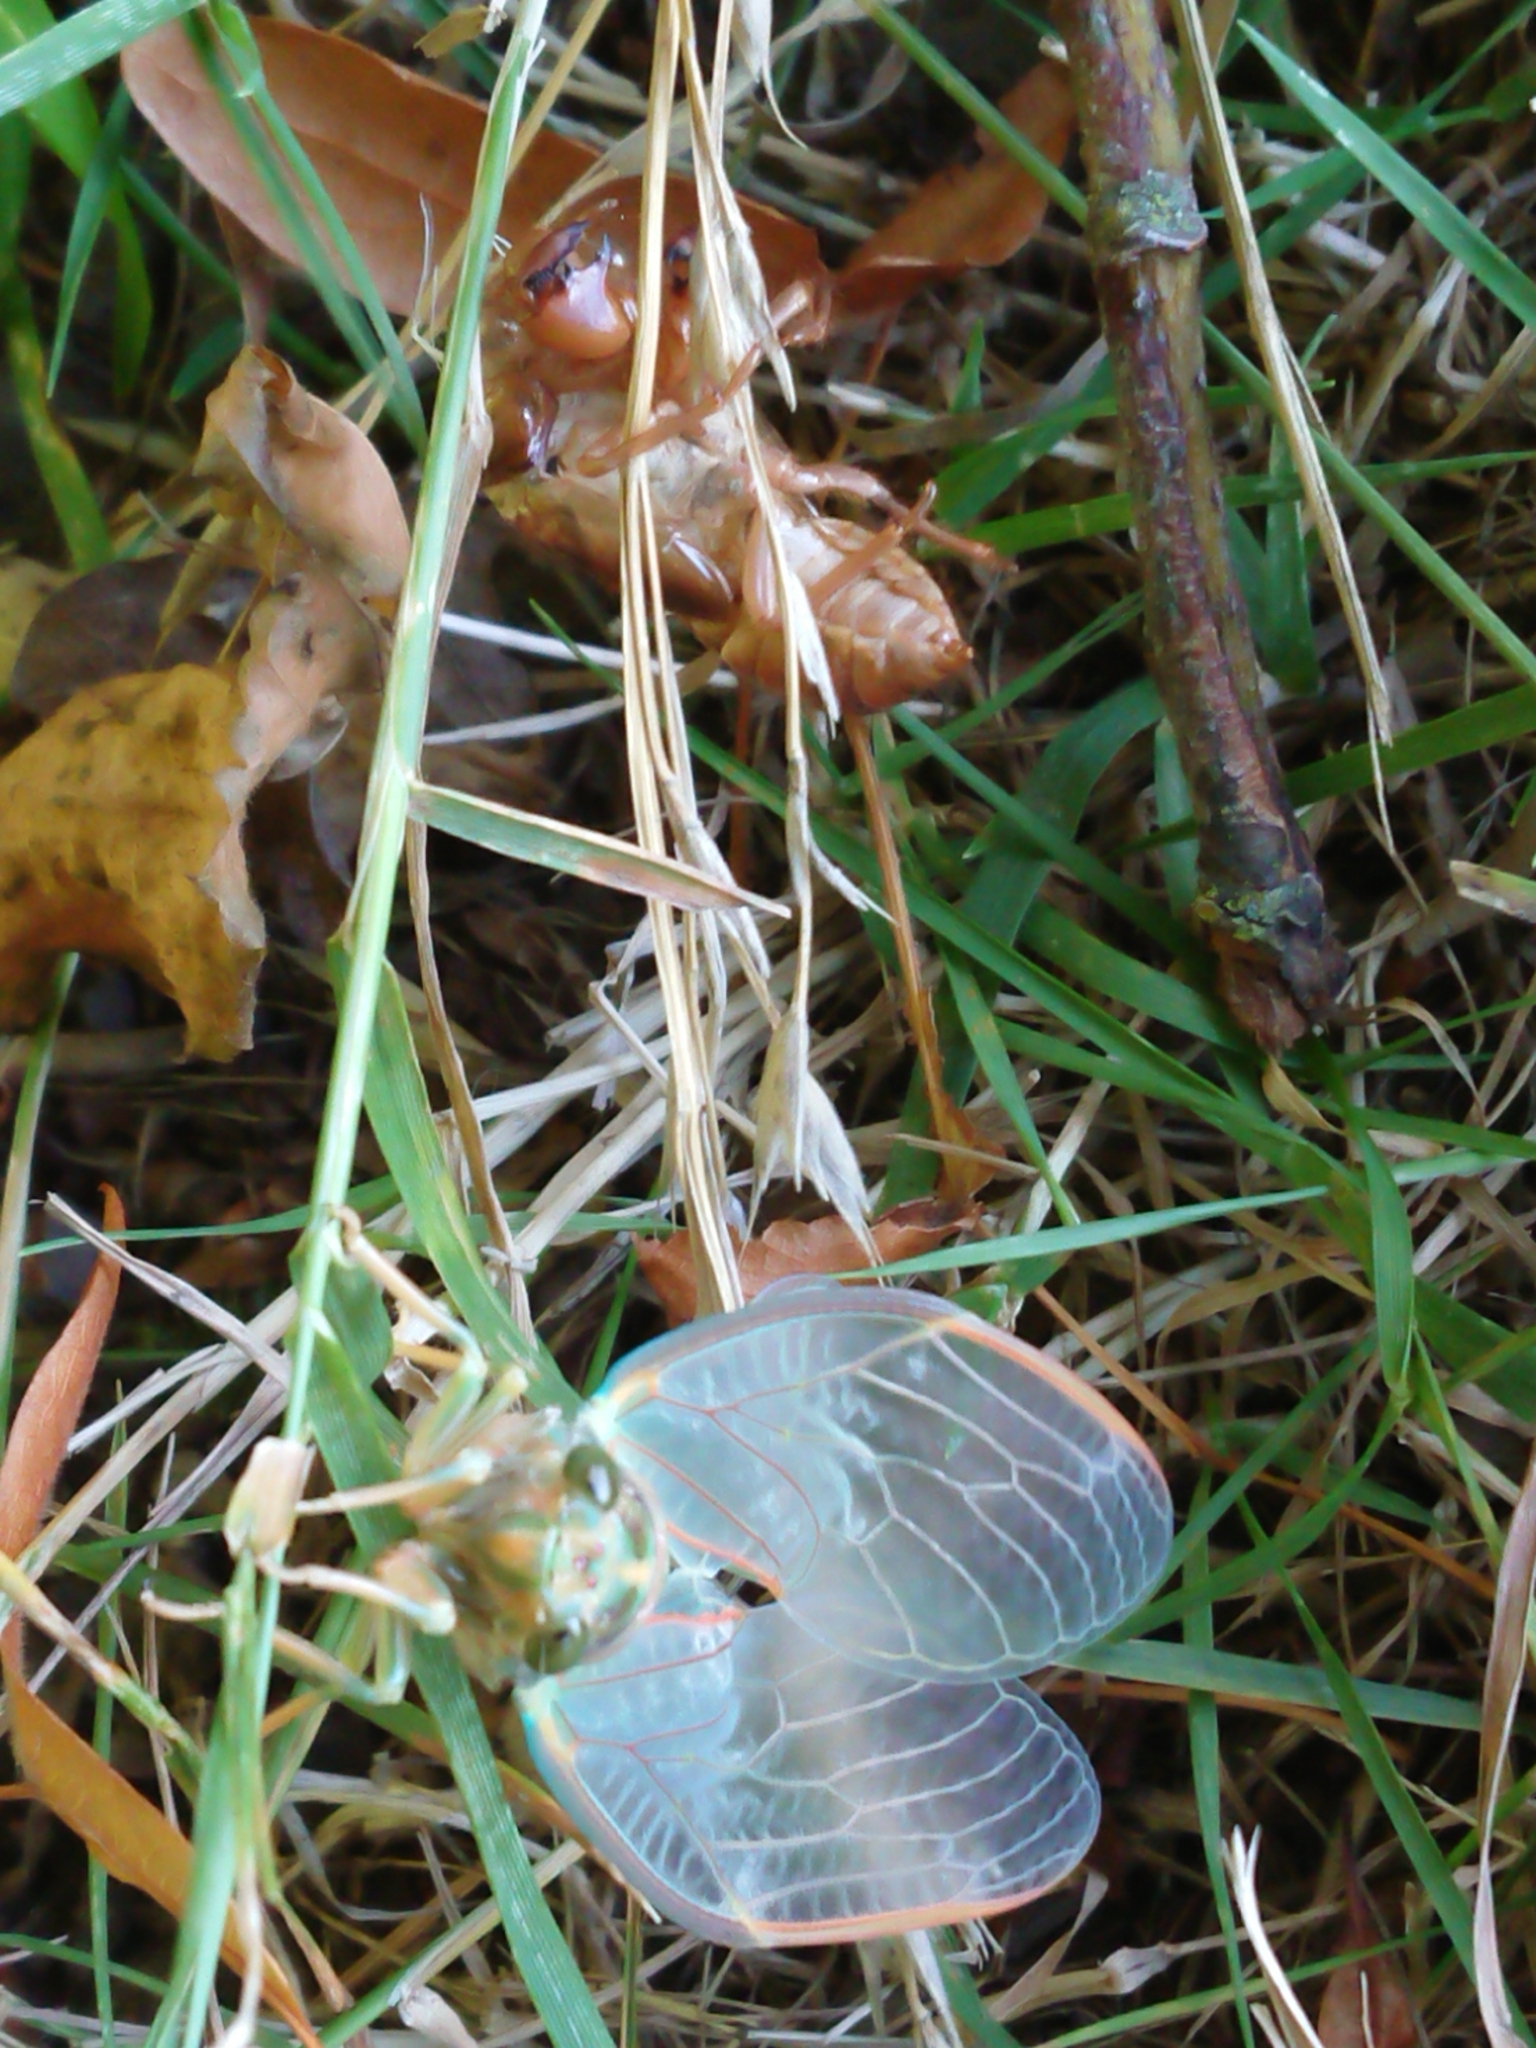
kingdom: Animalia
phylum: Arthropoda
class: Insecta
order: Hemiptera
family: Cicadidae
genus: Amphipsalta
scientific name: Amphipsalta zelandica
